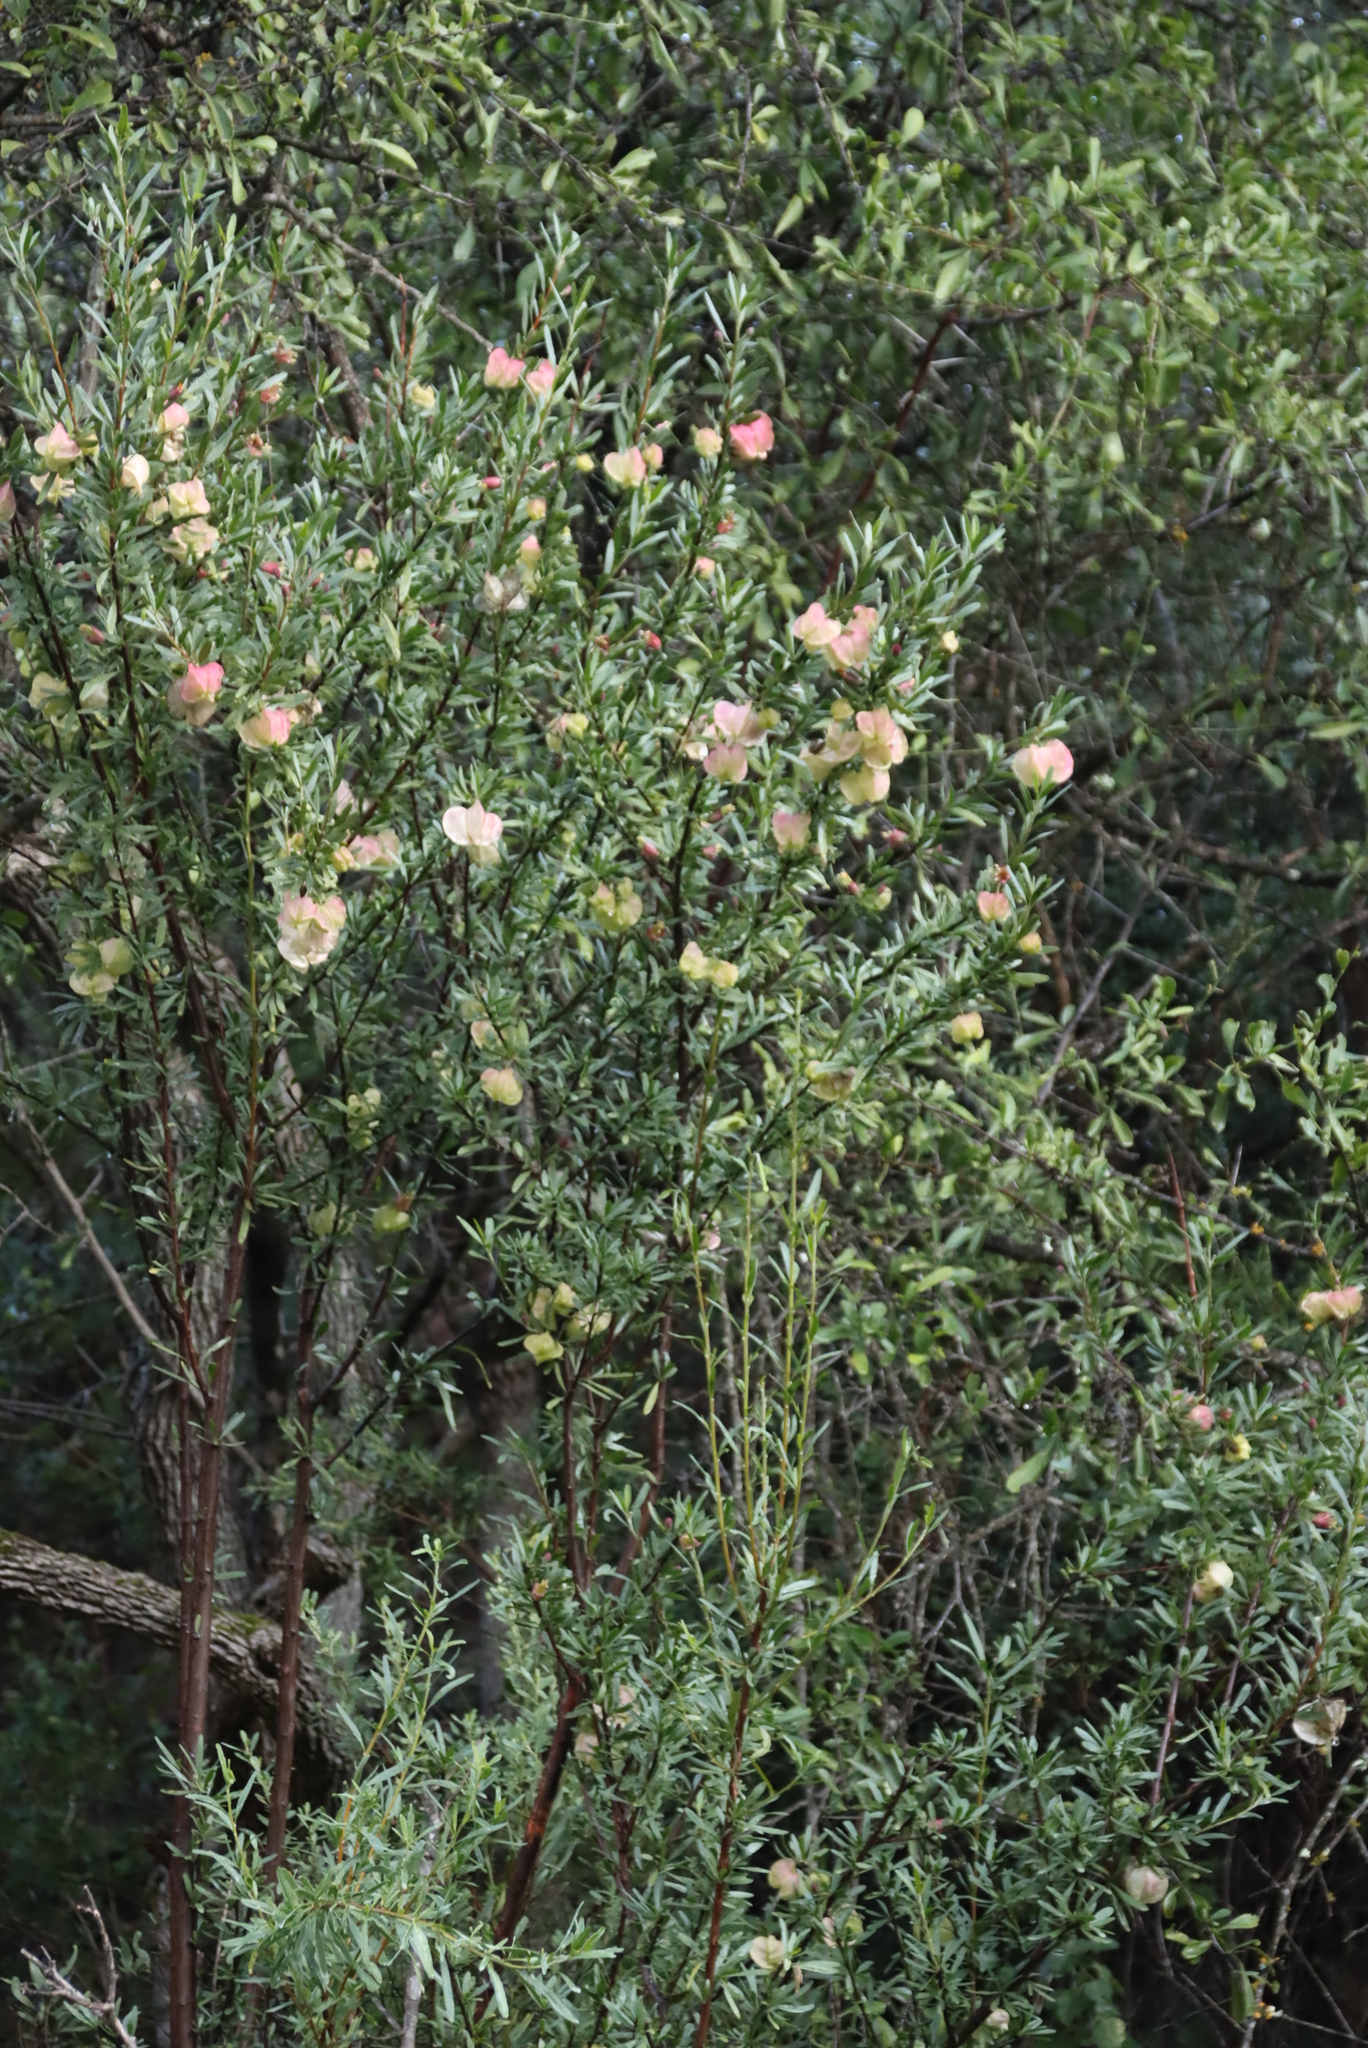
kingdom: Plantae
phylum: Tracheophyta
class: Magnoliopsida
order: Sapindales
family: Meliaceae
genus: Nymania
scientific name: Nymania capensis
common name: Chinese lantern tree
